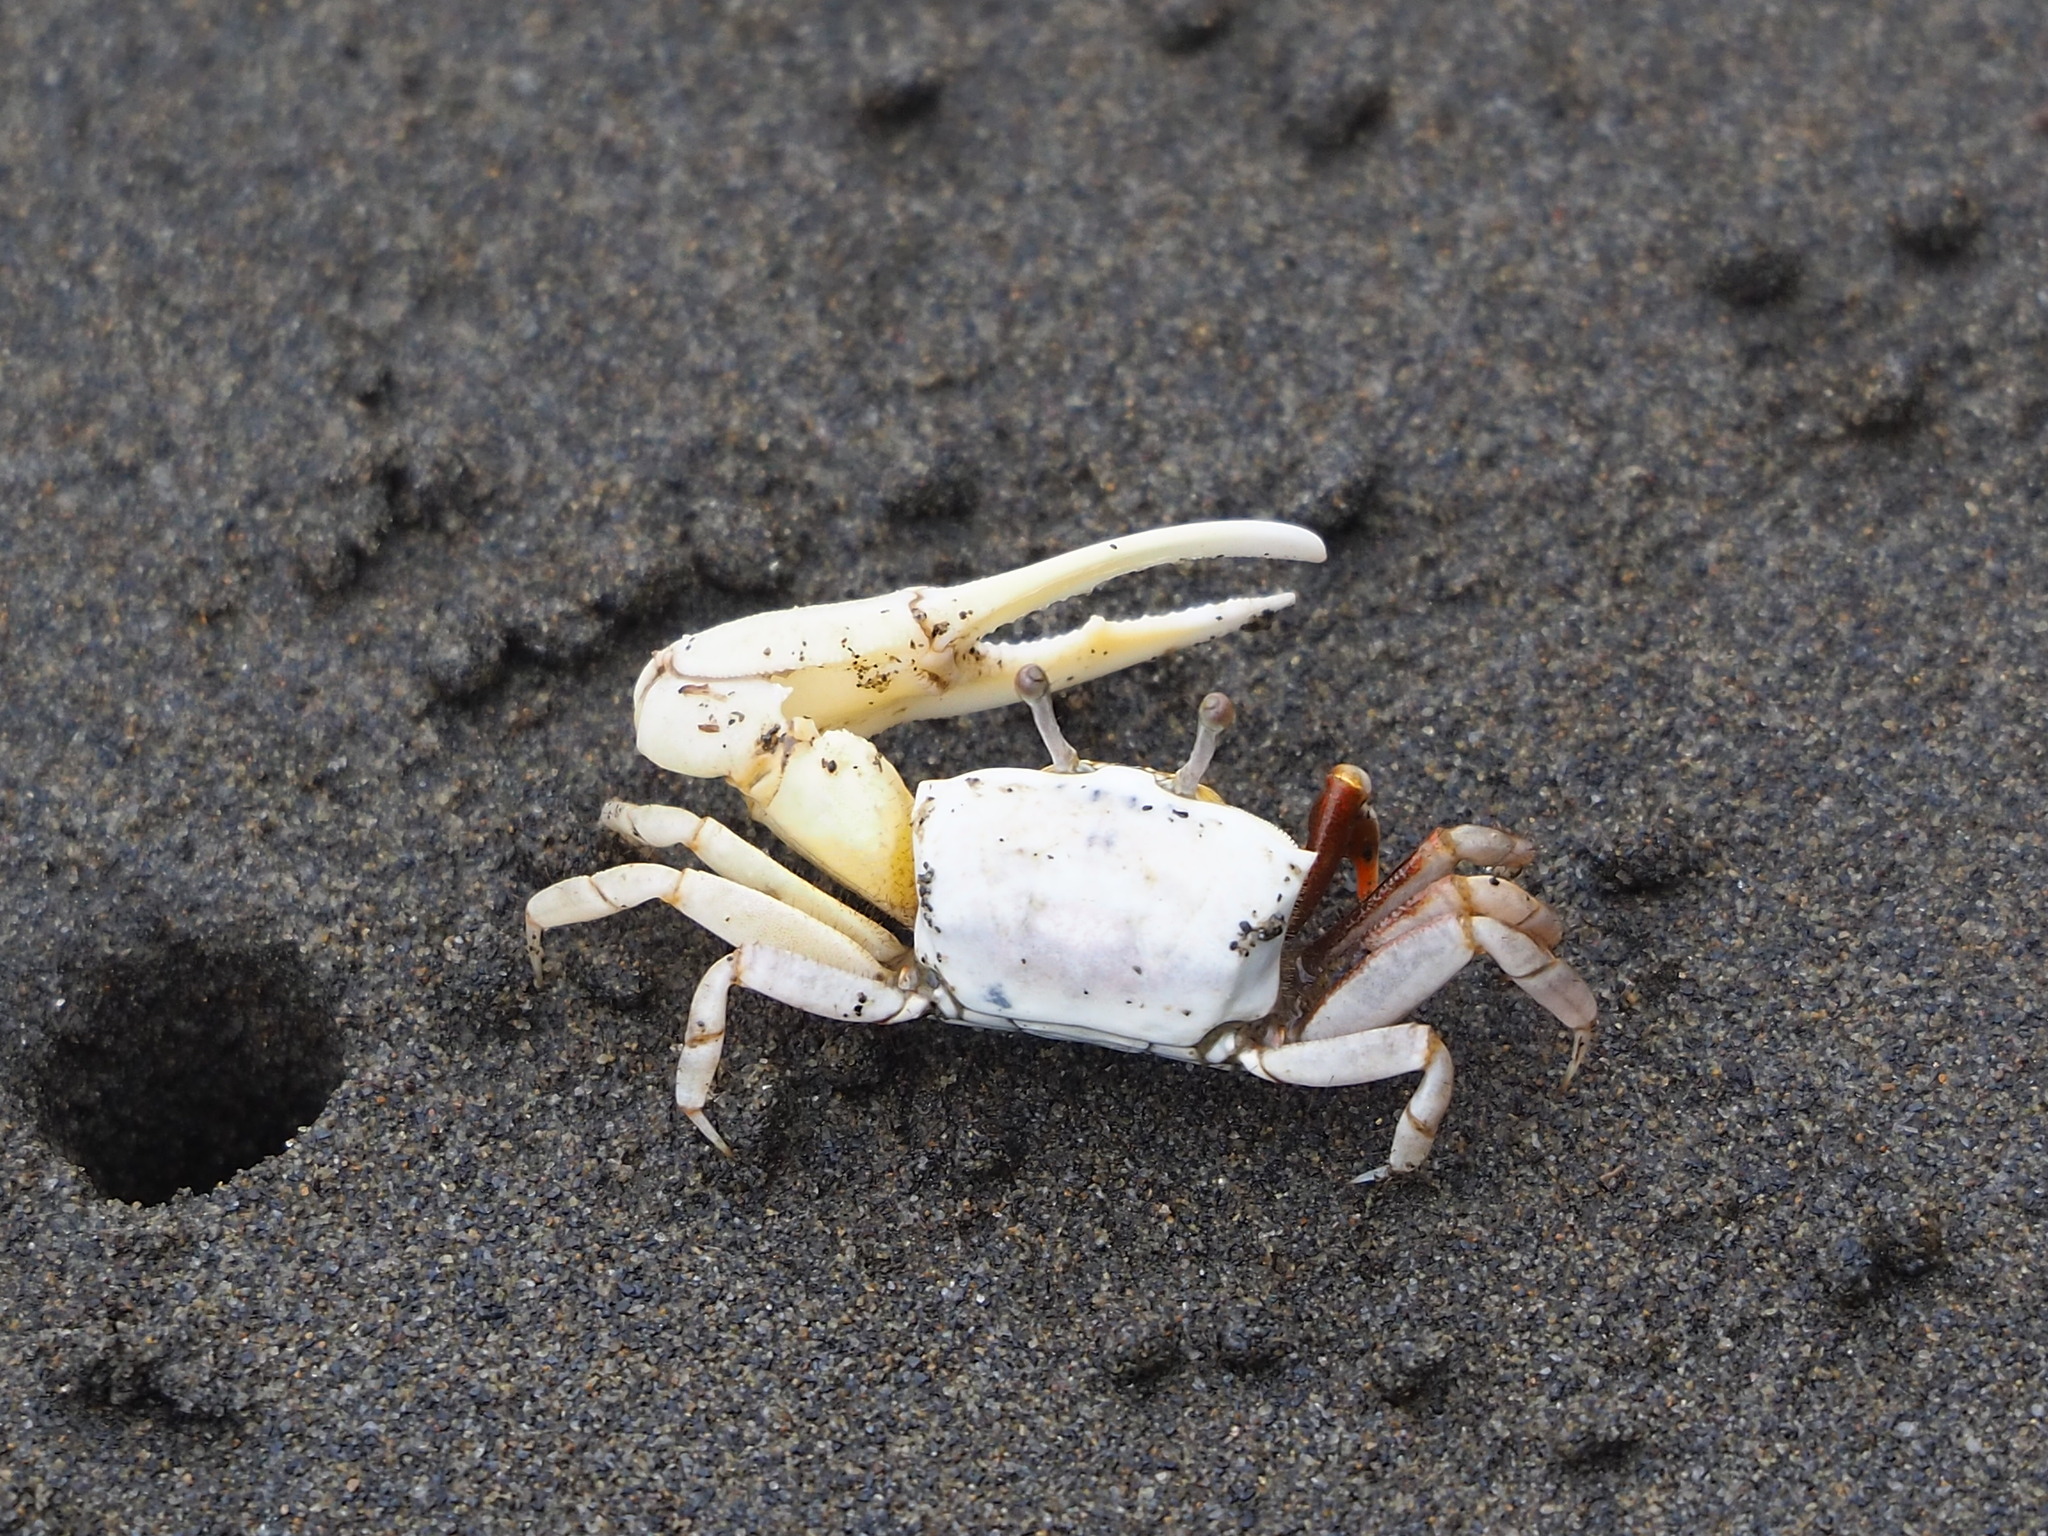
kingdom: Animalia
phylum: Arthropoda
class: Malacostraca
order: Decapoda
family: Ocypodidae
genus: Austruca
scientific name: Austruca lactea
